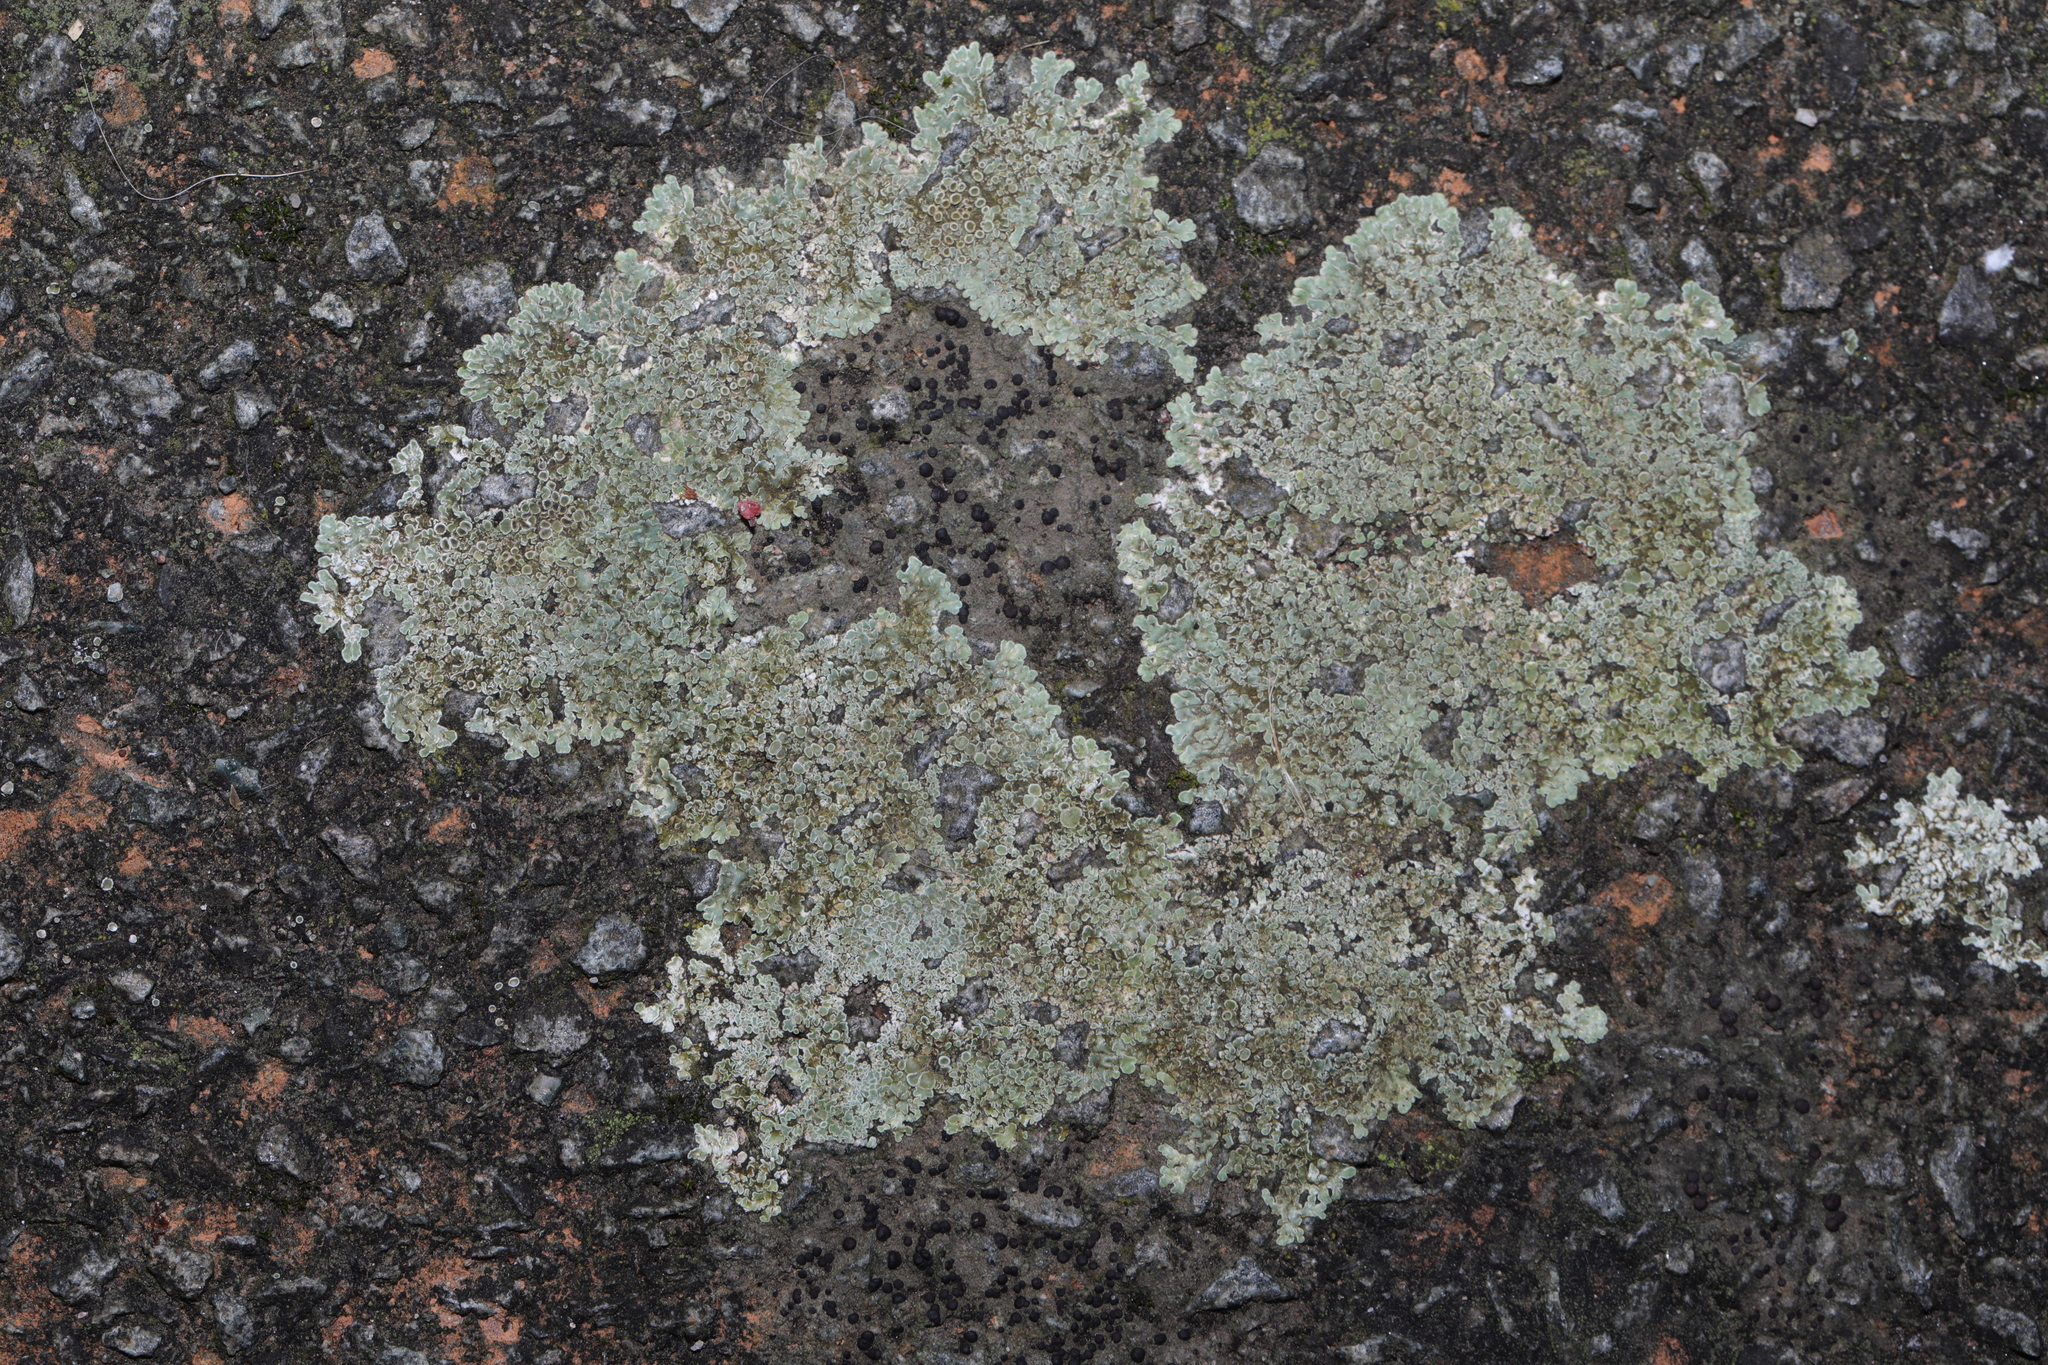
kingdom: Fungi
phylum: Ascomycota
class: Lecanoromycetes
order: Lecanorales
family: Lecanoraceae
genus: Protoparmeliopsis
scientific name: Protoparmeliopsis muralis
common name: Stonewall rim lichen
